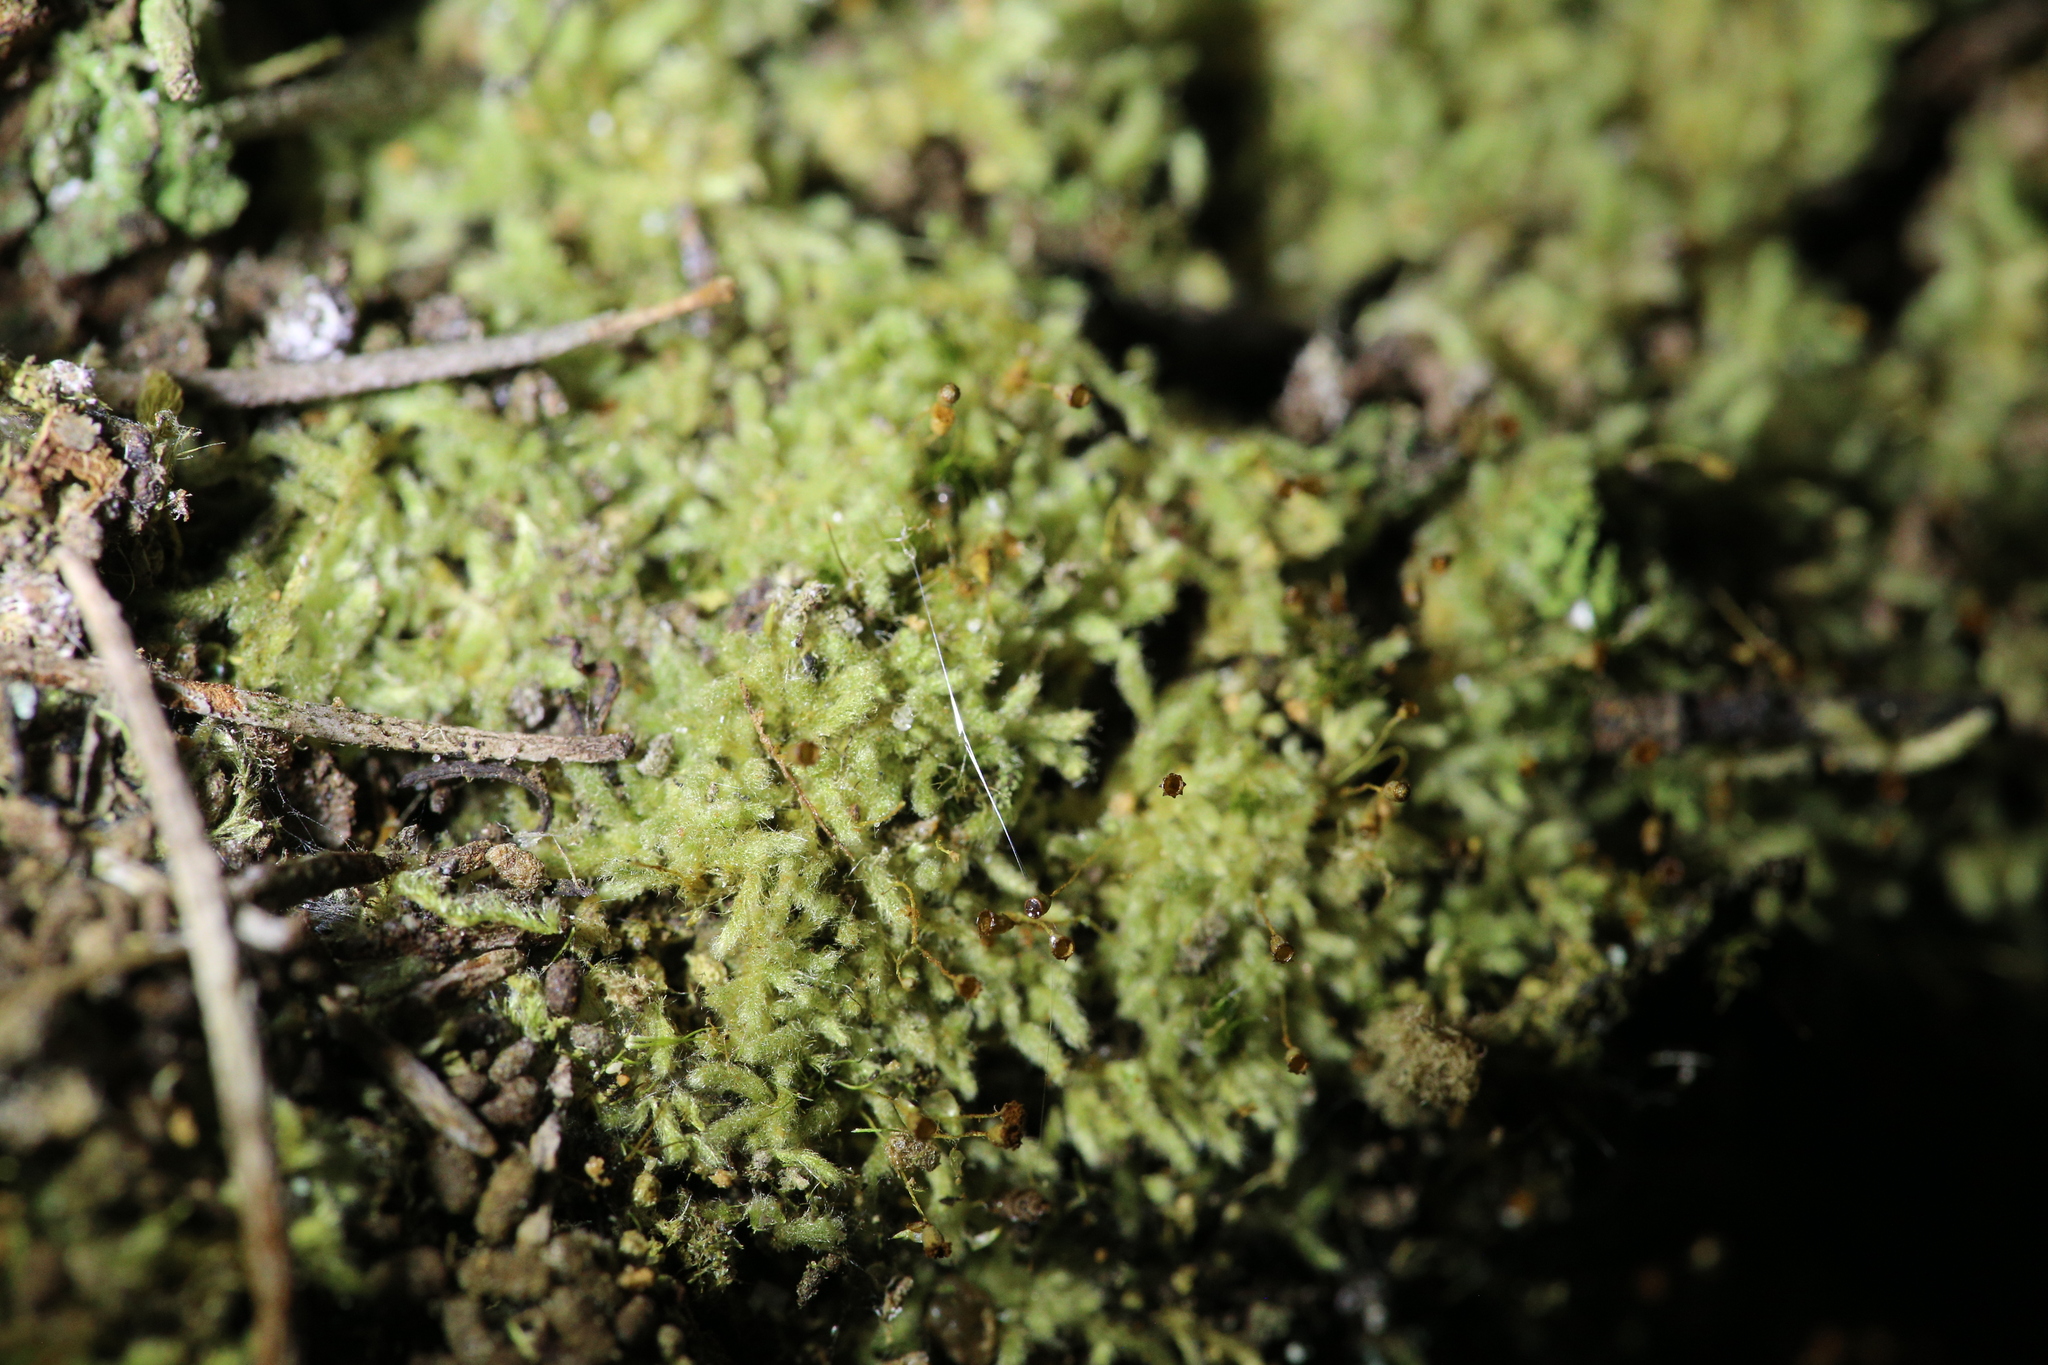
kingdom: Plantae
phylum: Bryophyta
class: Bryopsida
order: Hypnales
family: Fabroniaceae
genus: Fabronia
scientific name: Fabronia hampeana
